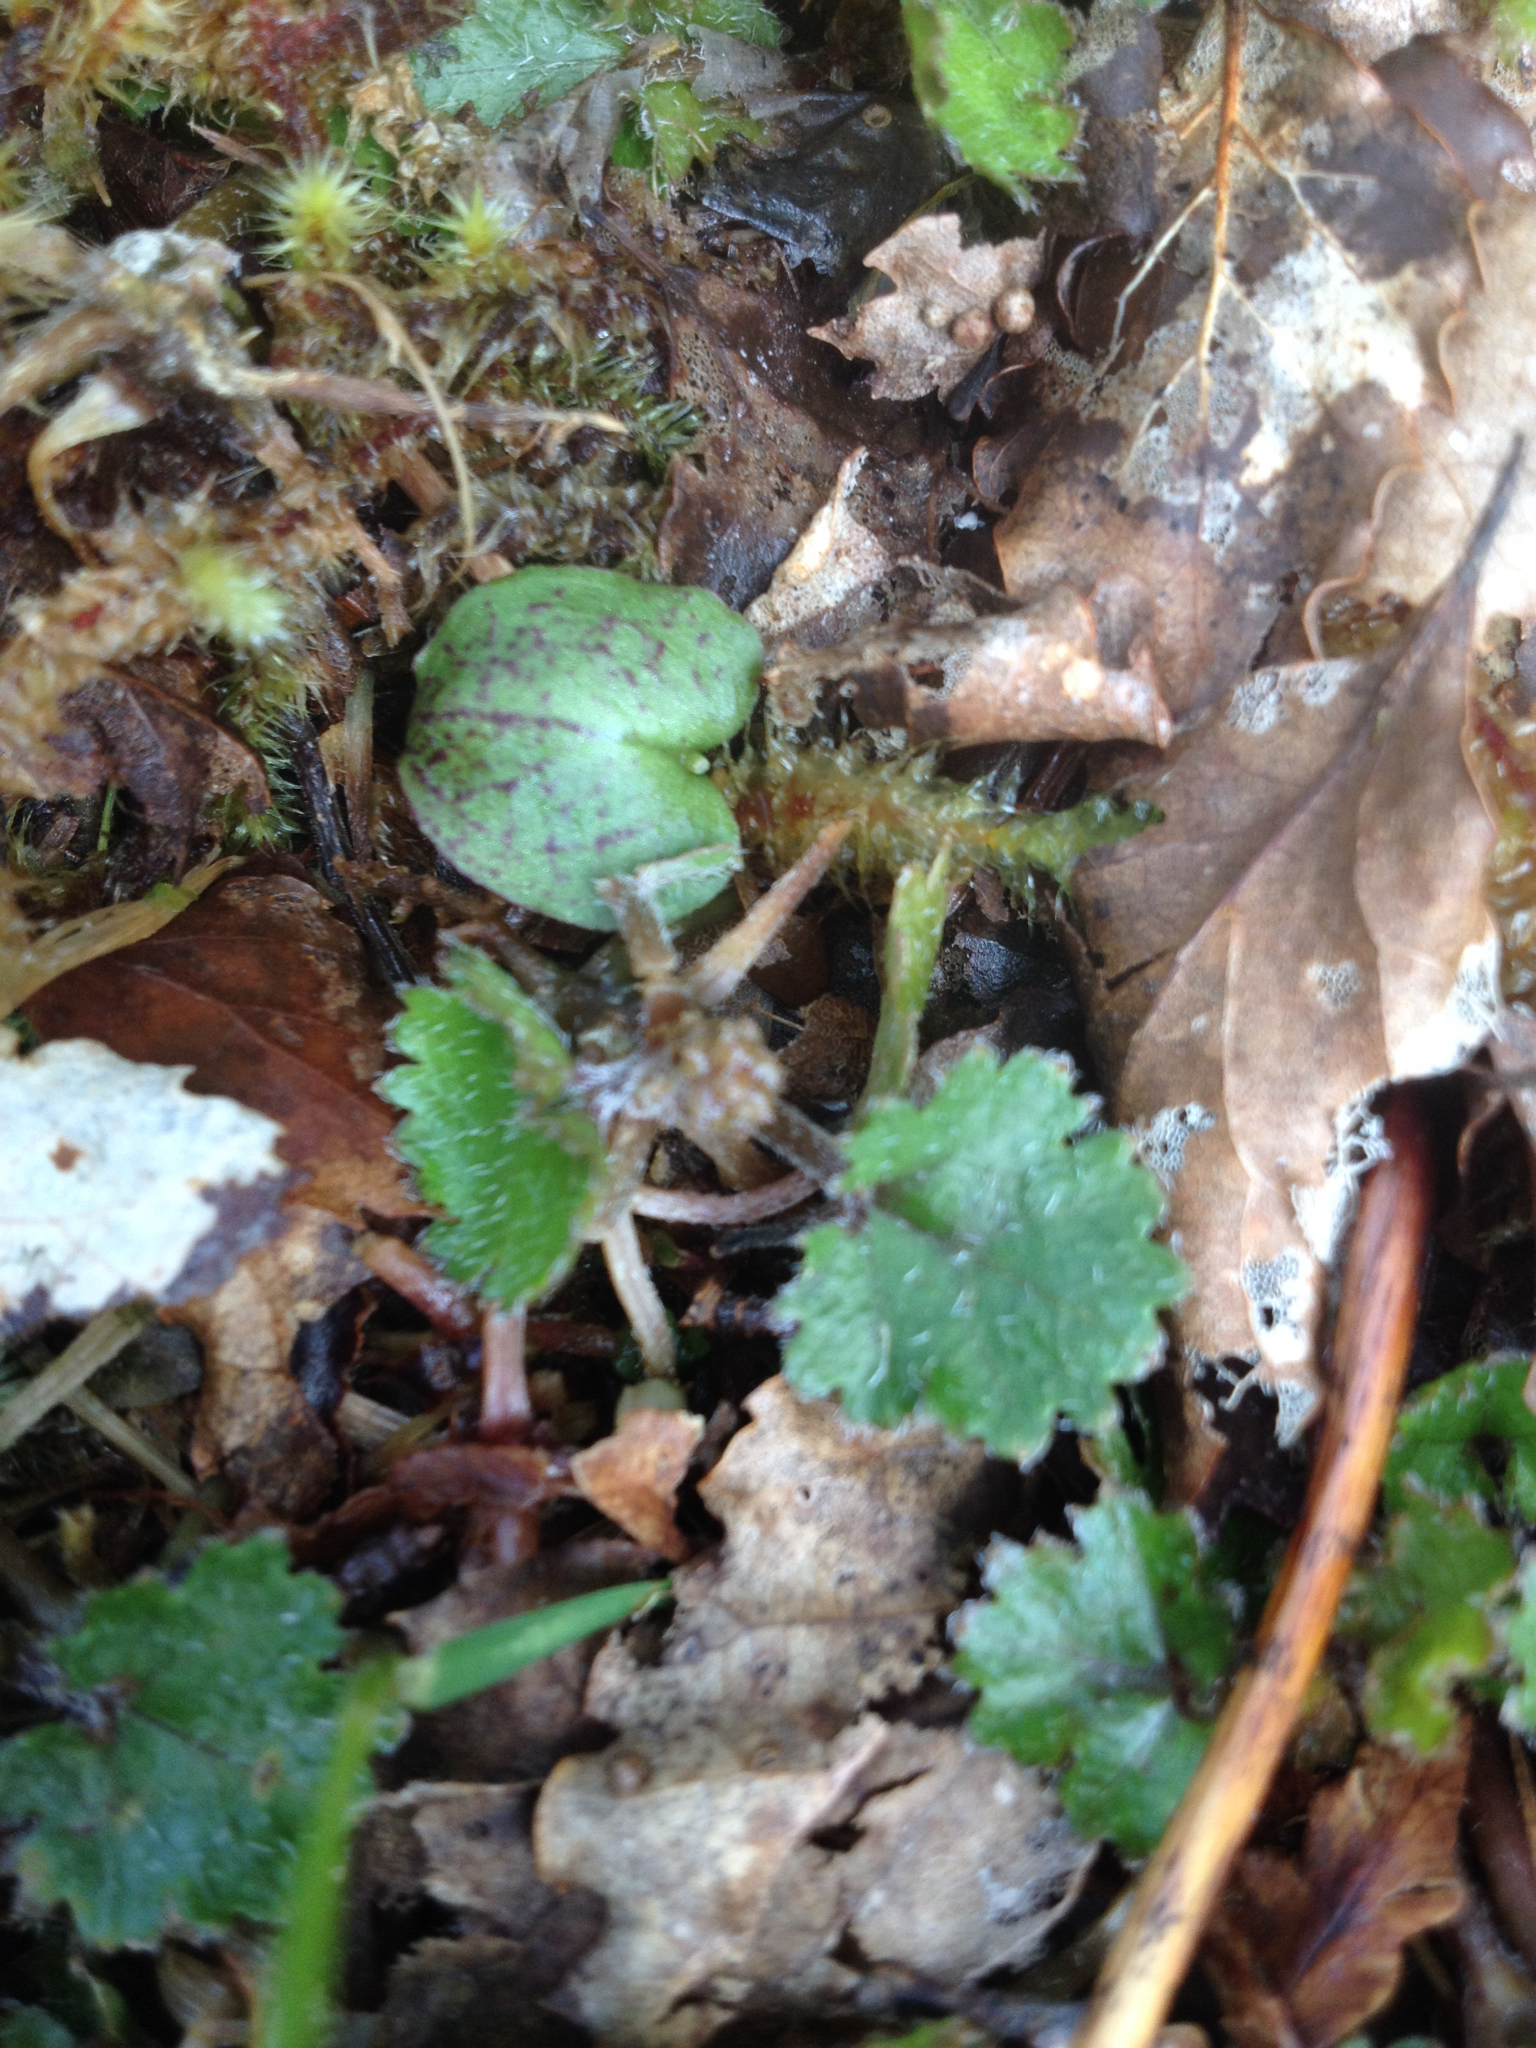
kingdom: Plantae
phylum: Tracheophyta
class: Liliopsida
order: Asparagales
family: Orchidaceae
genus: Corybas
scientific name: Corybas oblongus
